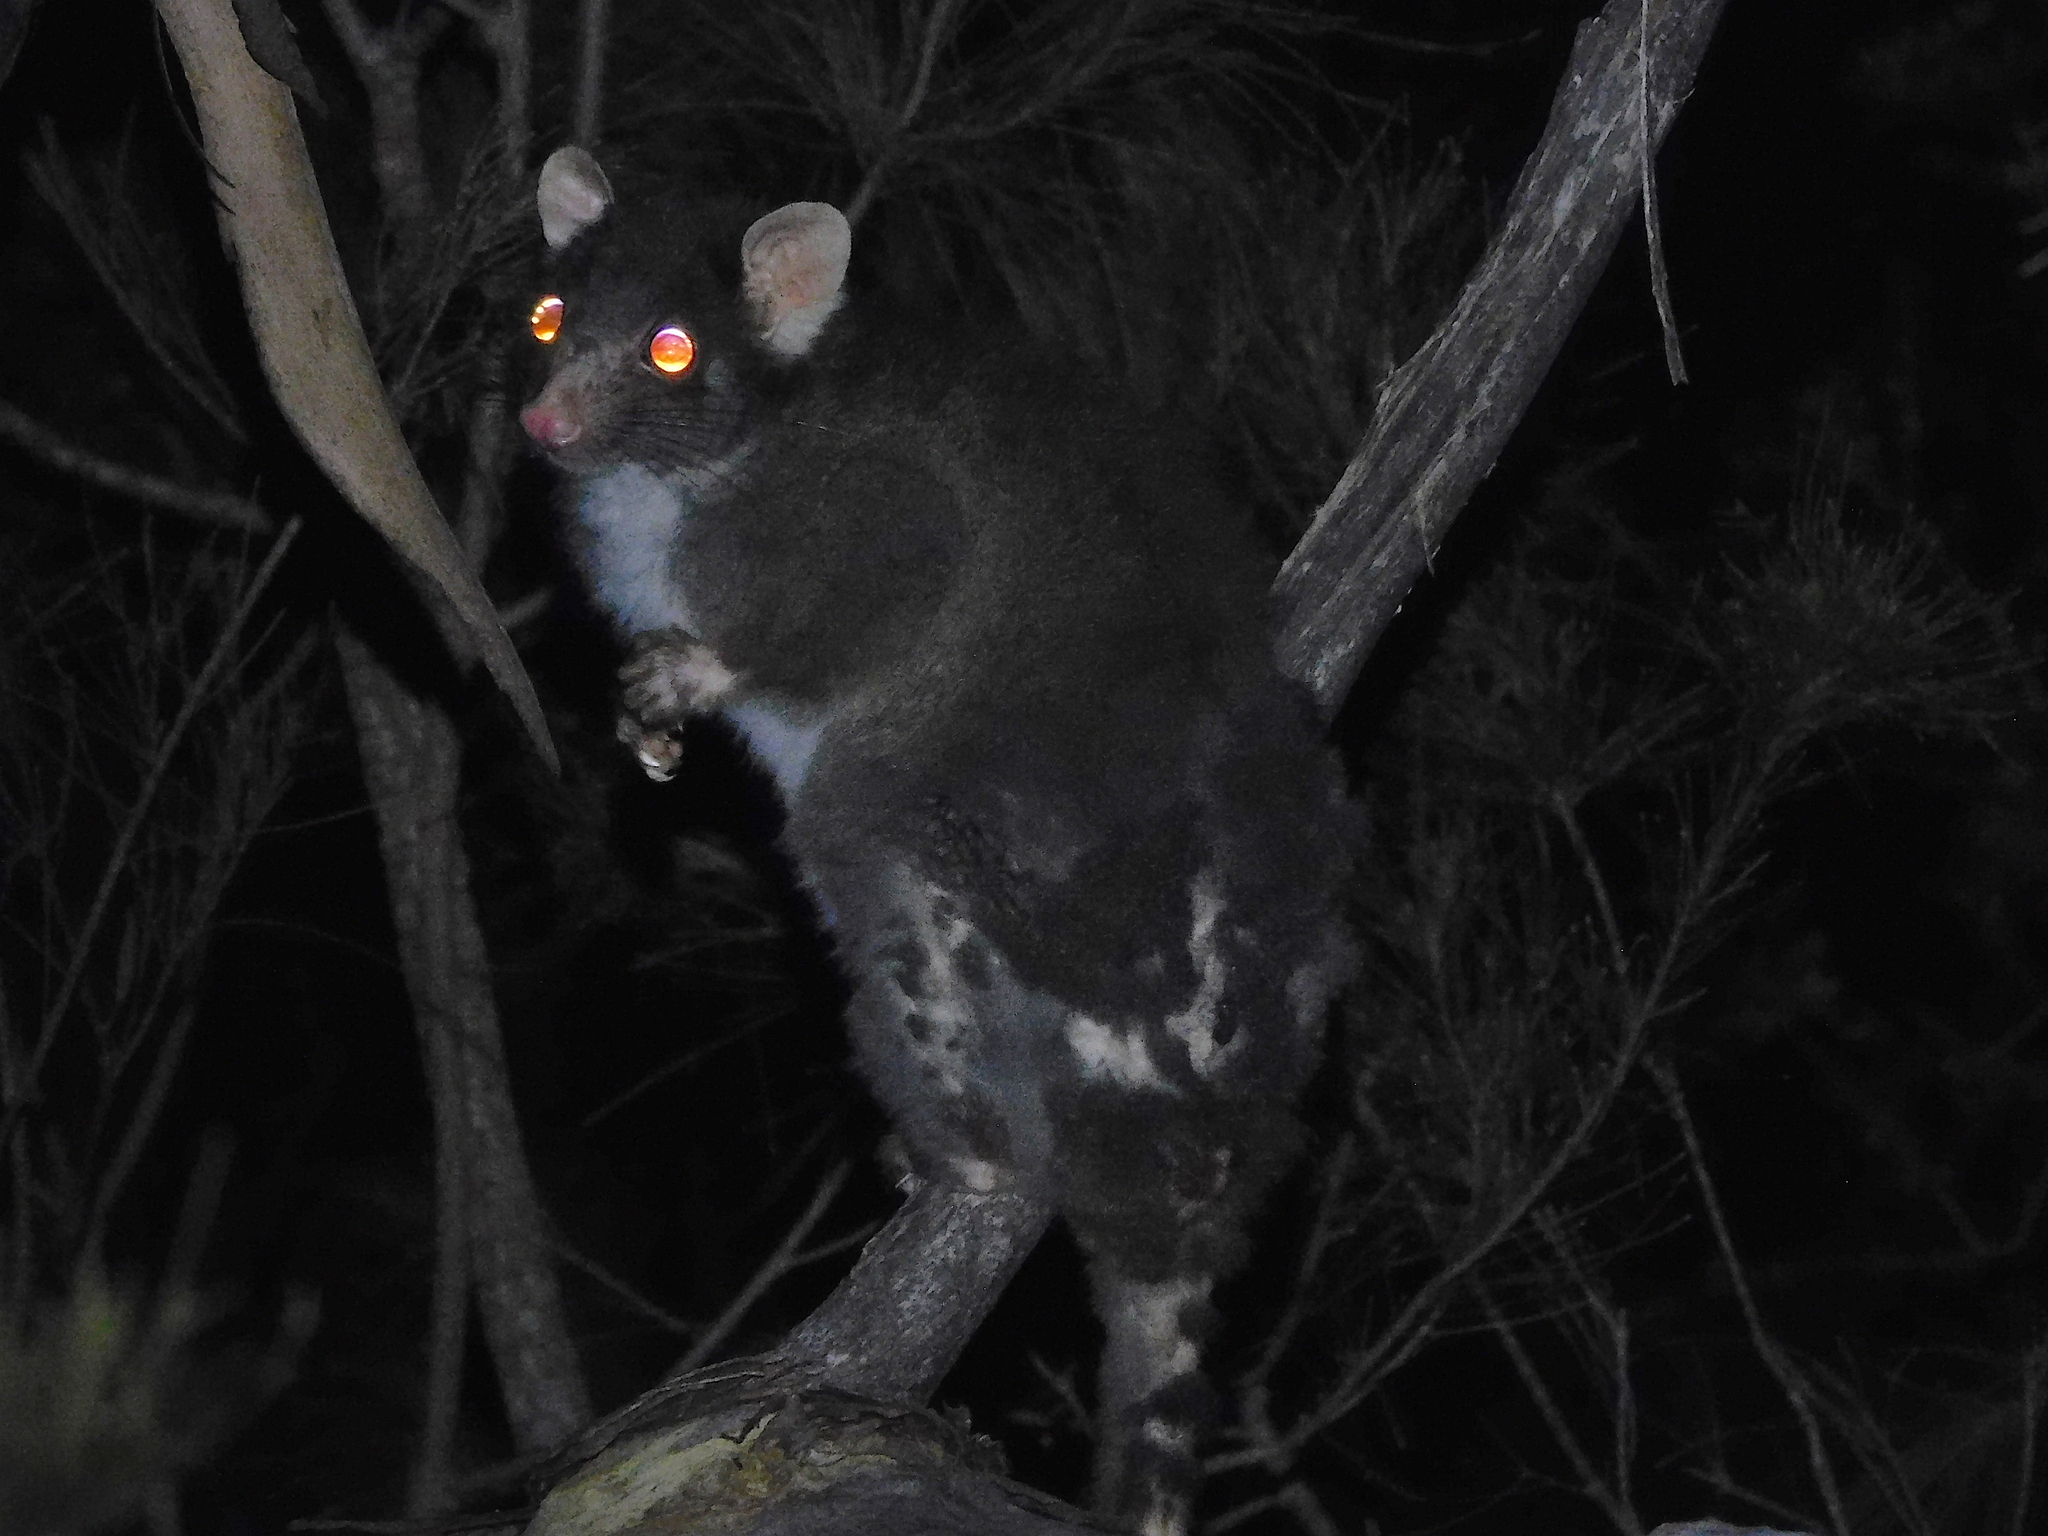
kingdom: Animalia
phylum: Chordata
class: Mammalia
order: Diprotodontia
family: Pseudocheiridae
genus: Pseudocheirus
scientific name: Pseudocheirus peregrinus
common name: Common ringtail possum
